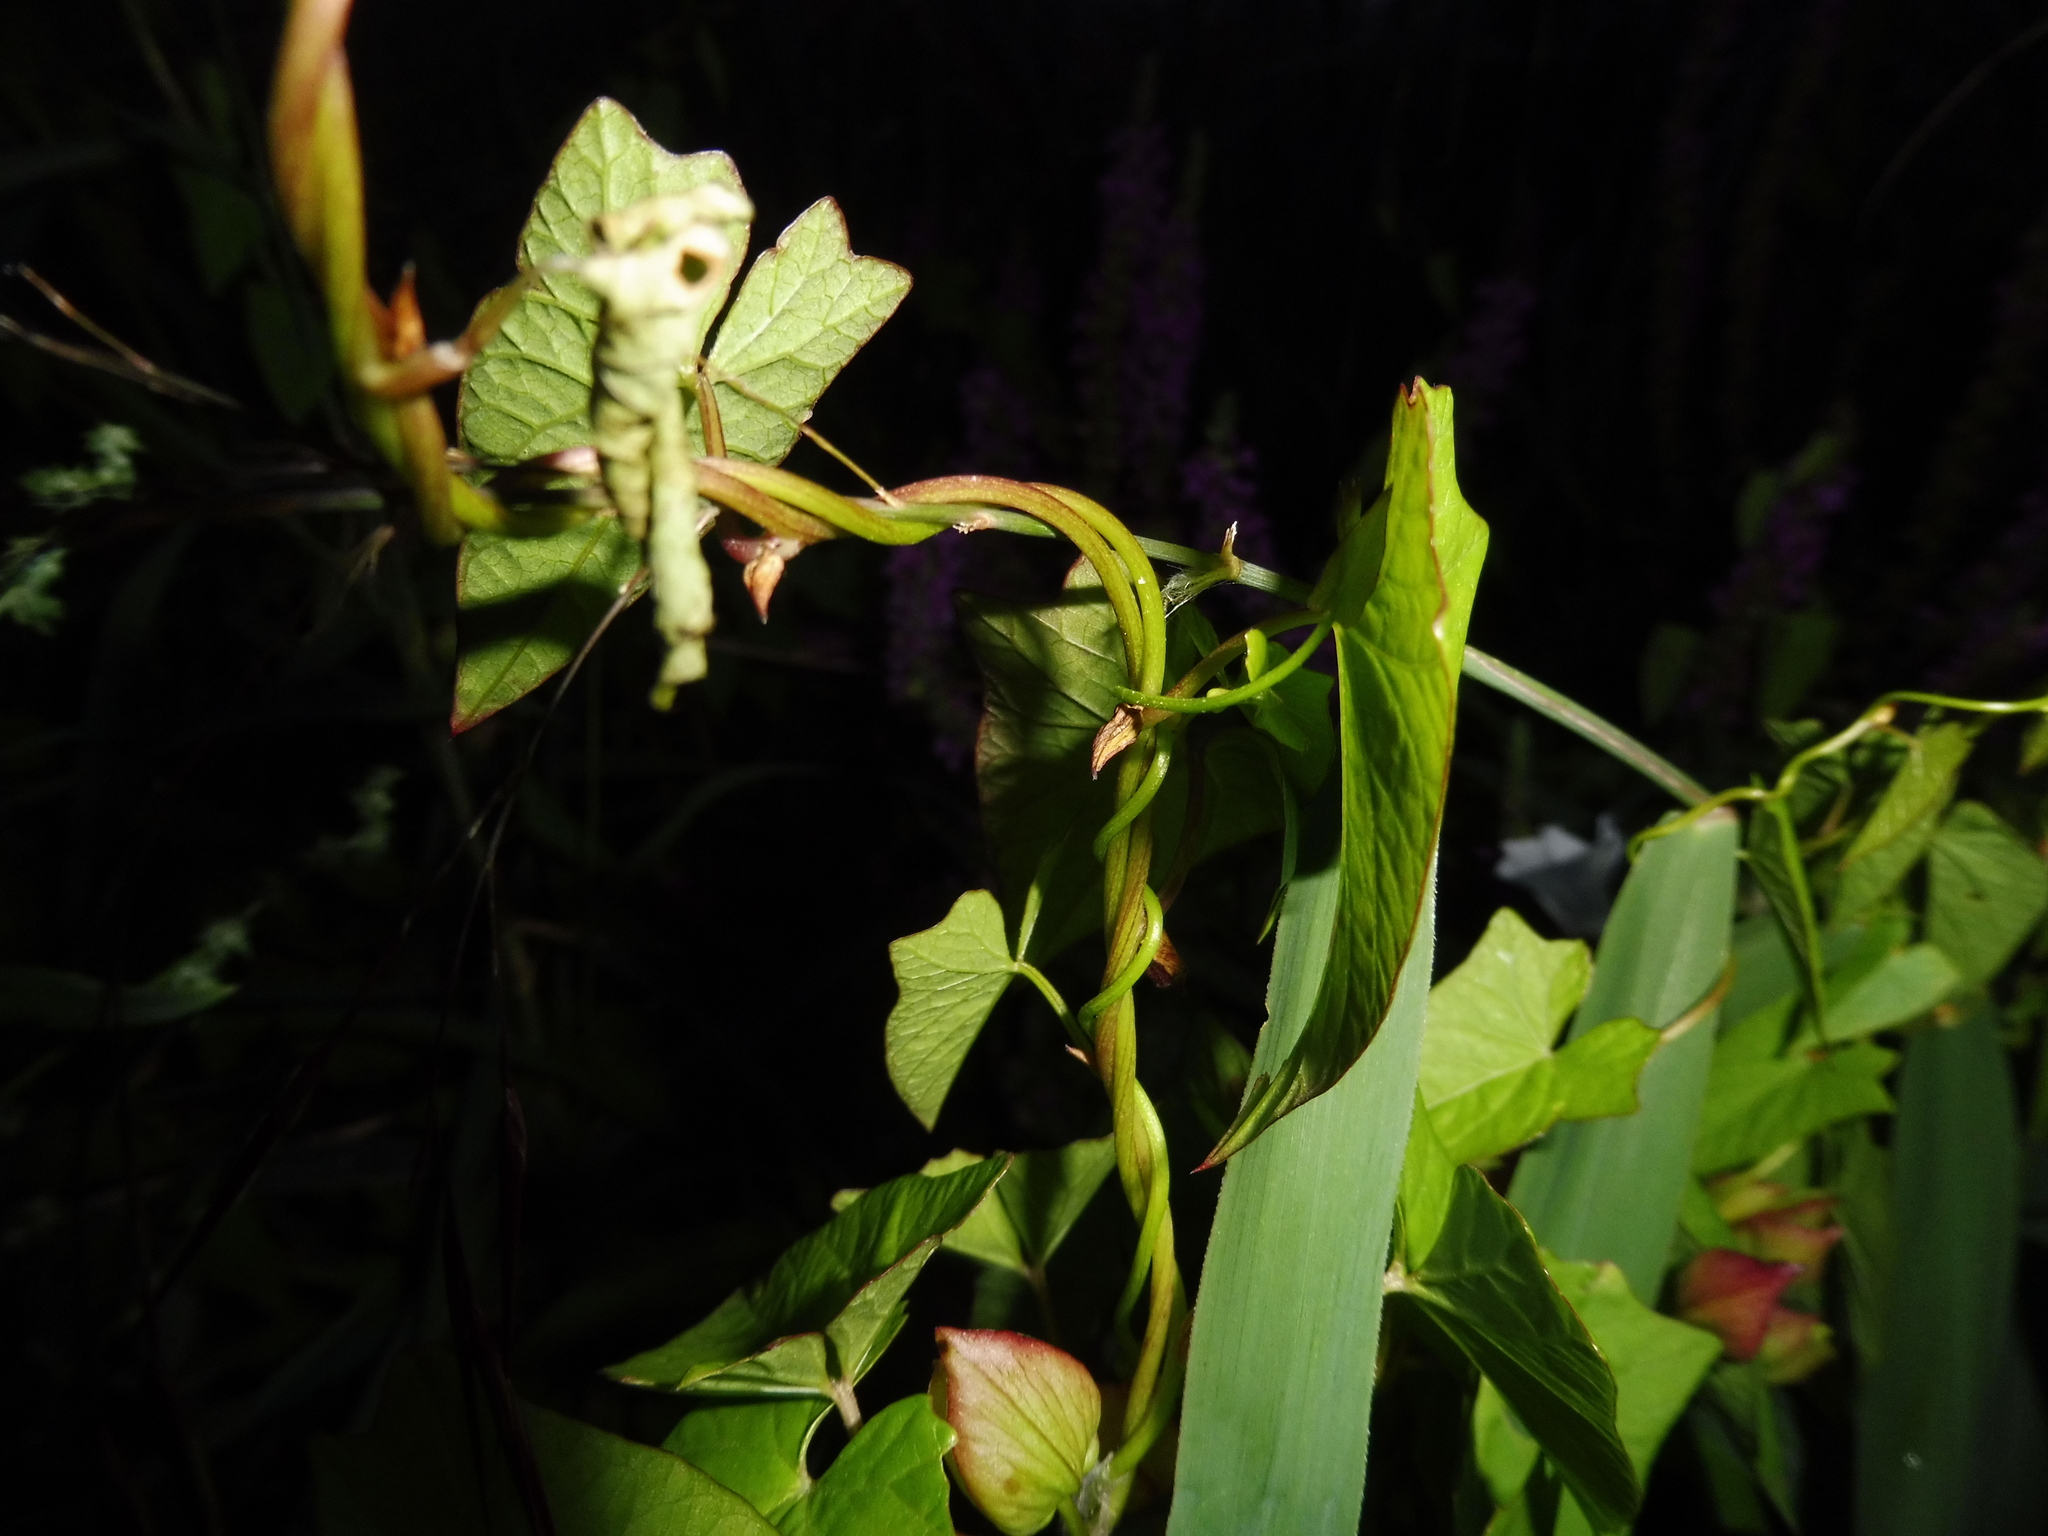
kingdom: Plantae
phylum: Tracheophyta
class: Magnoliopsida
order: Solanales
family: Convolvulaceae
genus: Calystegia
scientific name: Calystegia sepium
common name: Hedge bindweed
